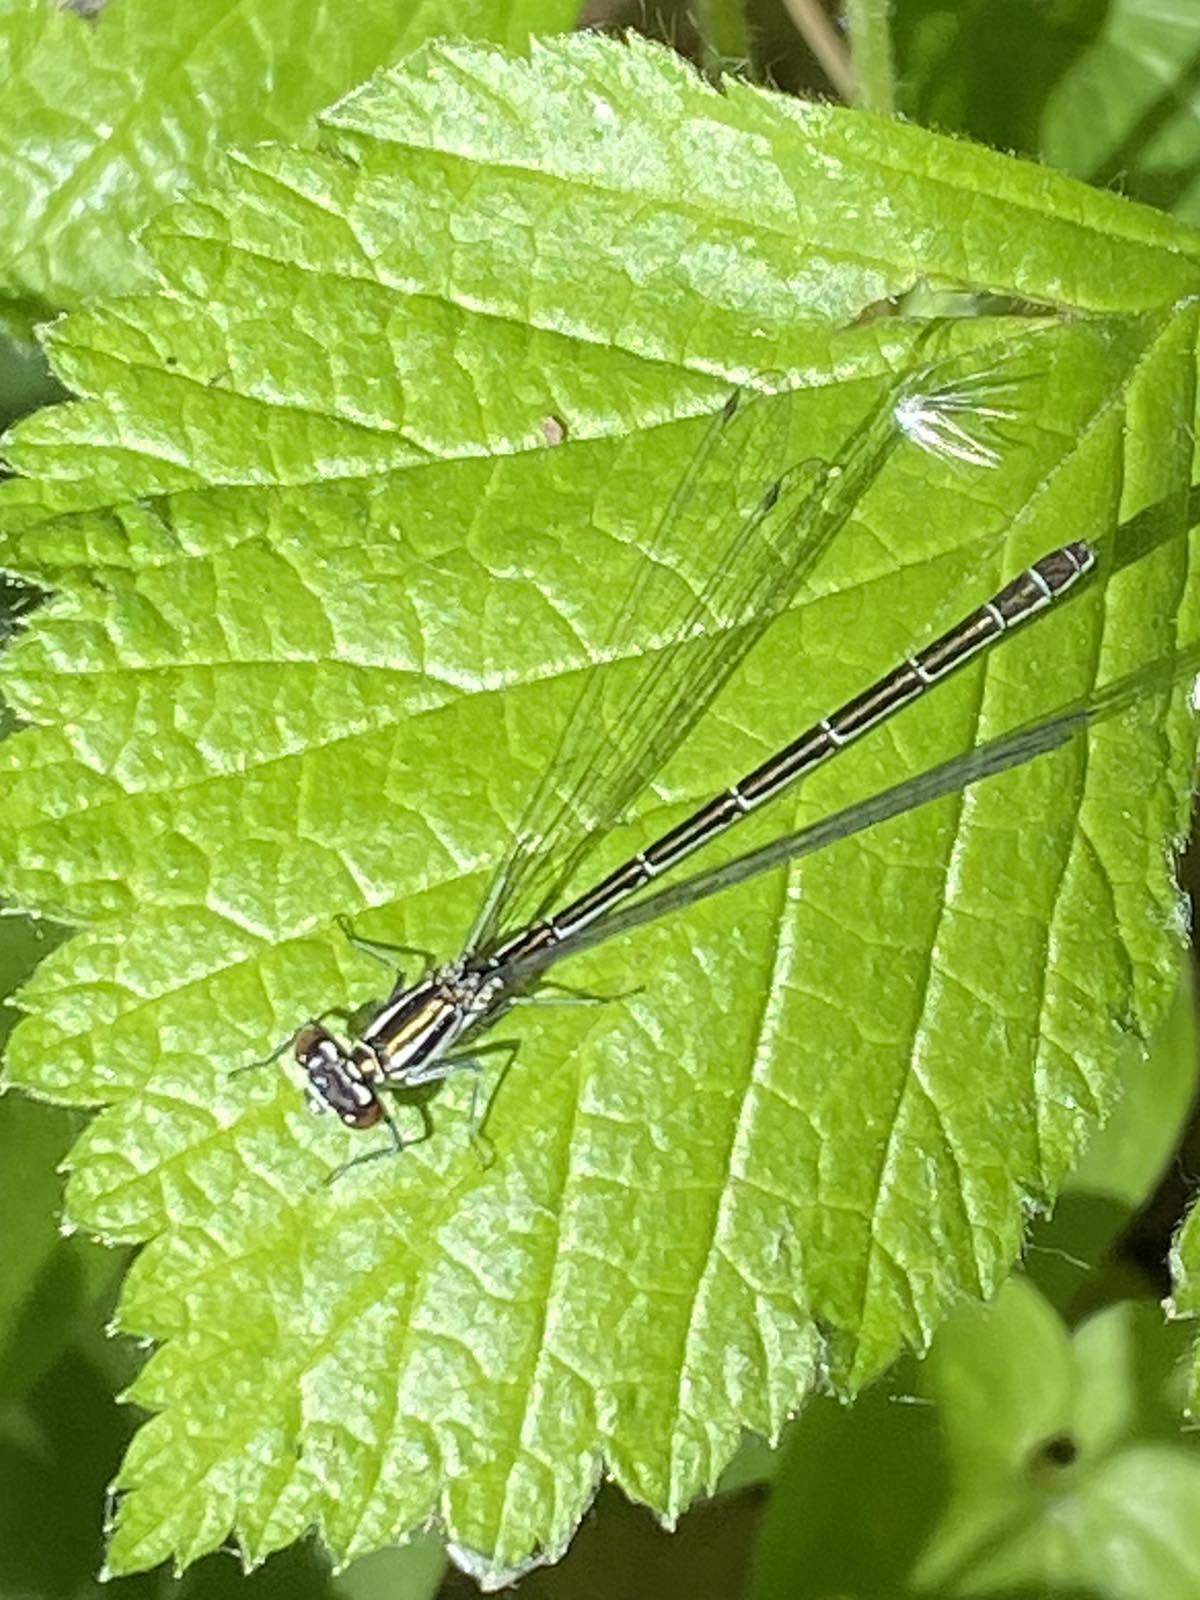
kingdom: Animalia
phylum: Arthropoda
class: Insecta
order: Odonata
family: Coenagrionidae
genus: Coenagrion
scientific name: Coenagrion hastulatum
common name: Spearhead bluet
